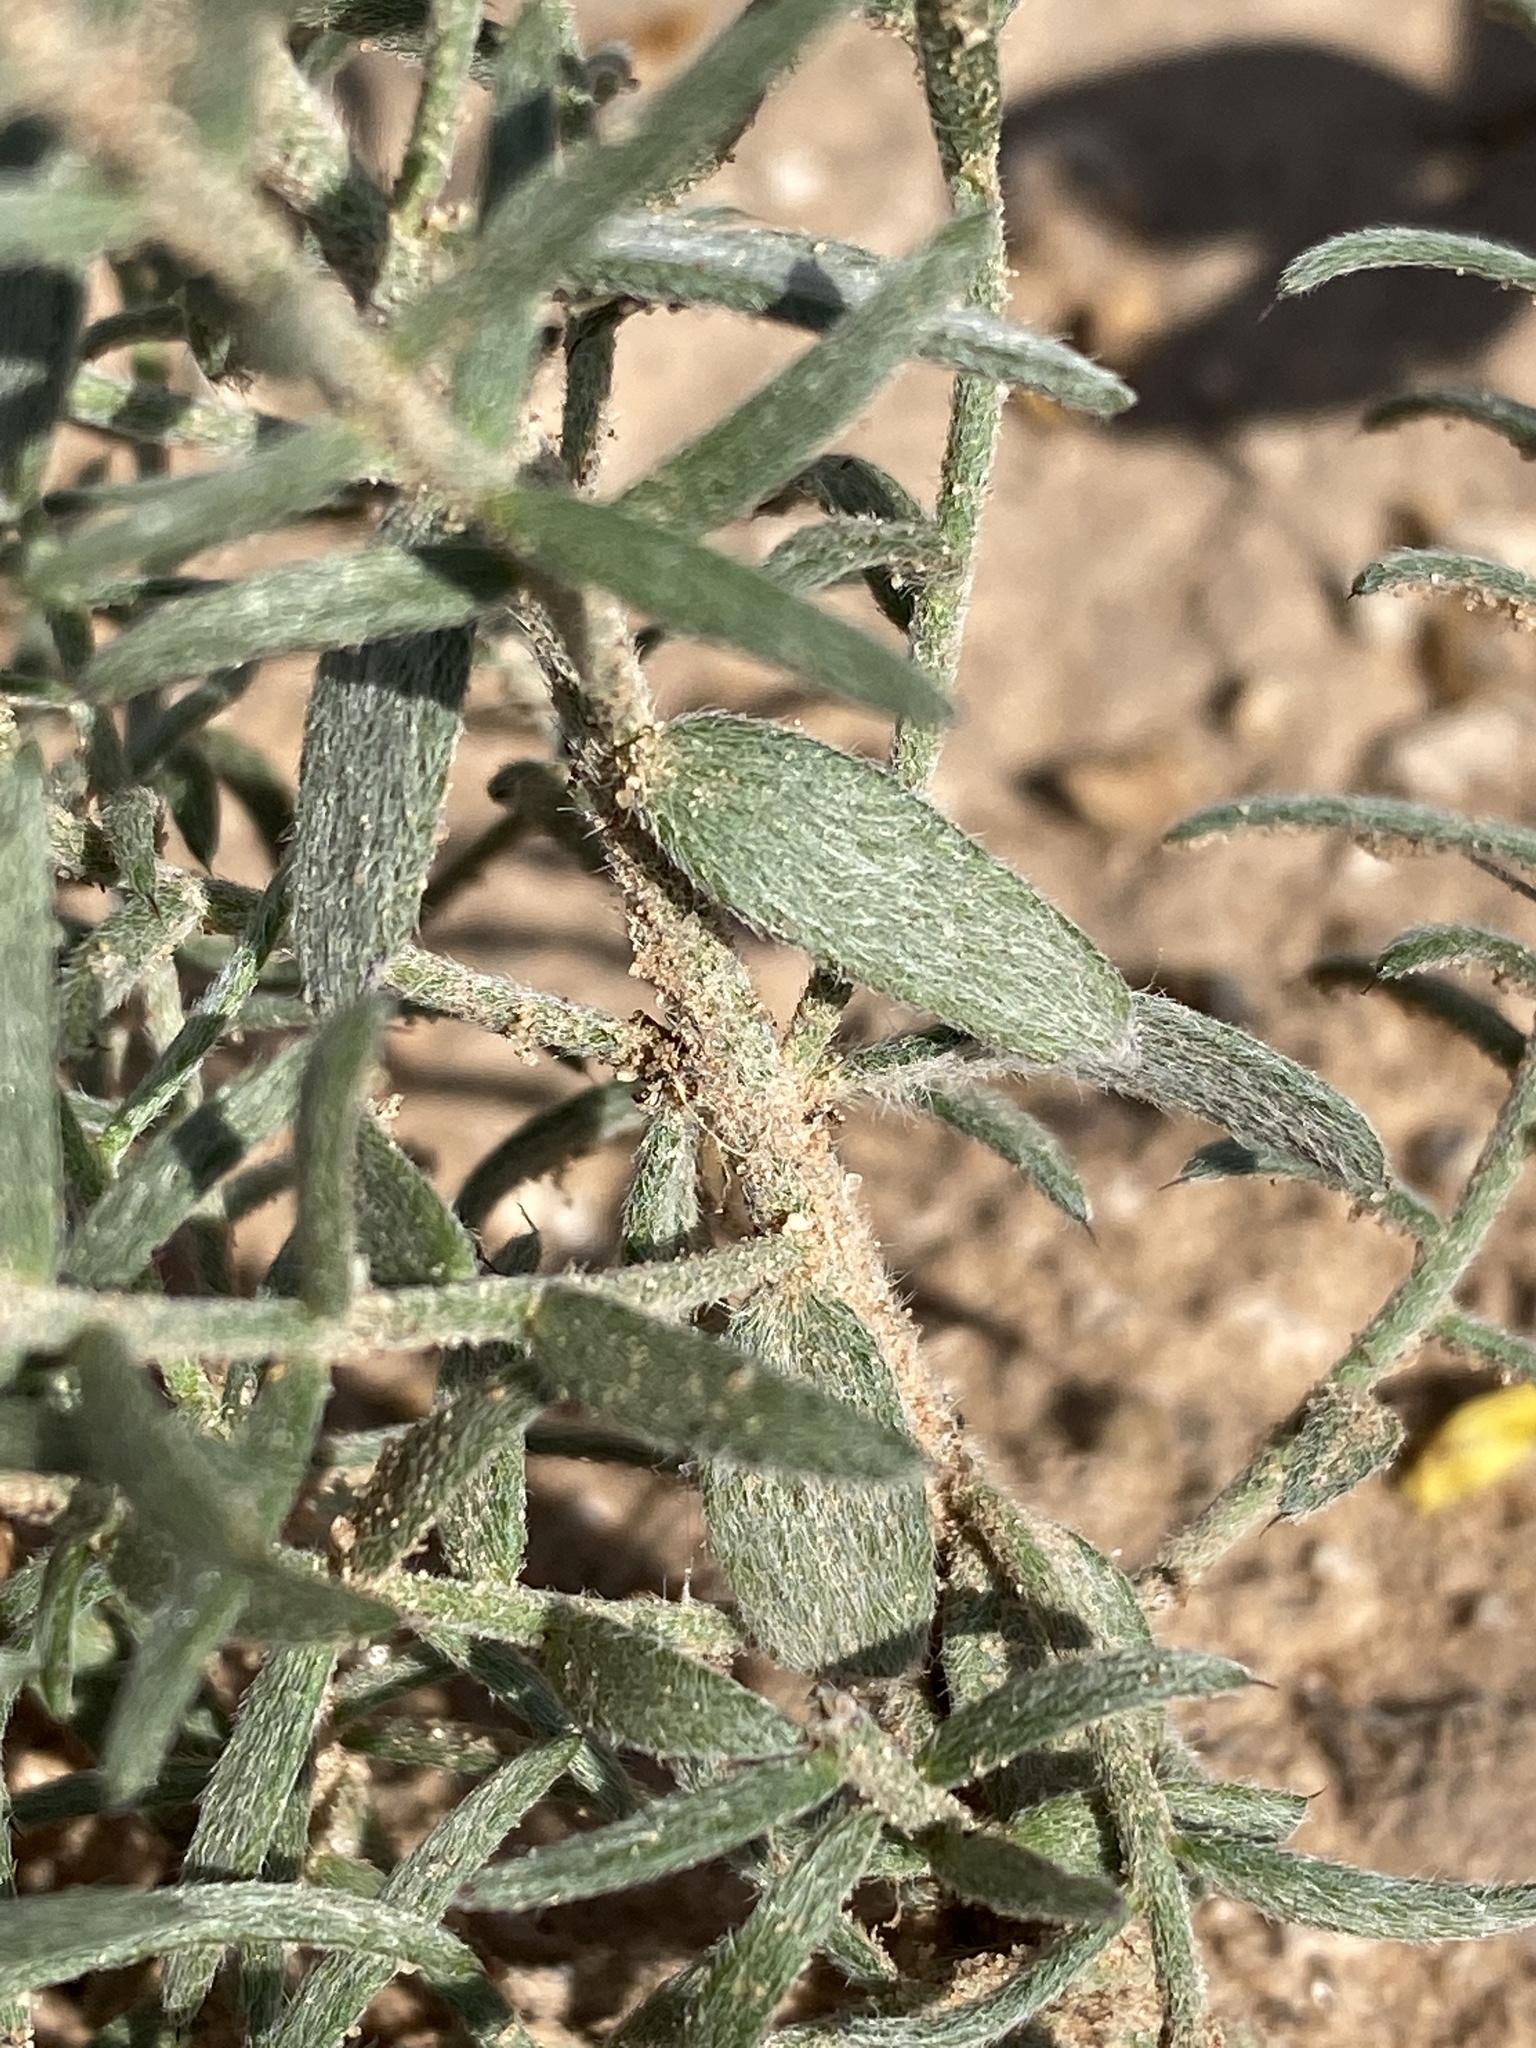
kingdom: Plantae
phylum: Tracheophyta
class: Magnoliopsida
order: Zygophyllales
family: Krameriaceae
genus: Krameria
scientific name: Krameria lanceolata
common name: Ratany
